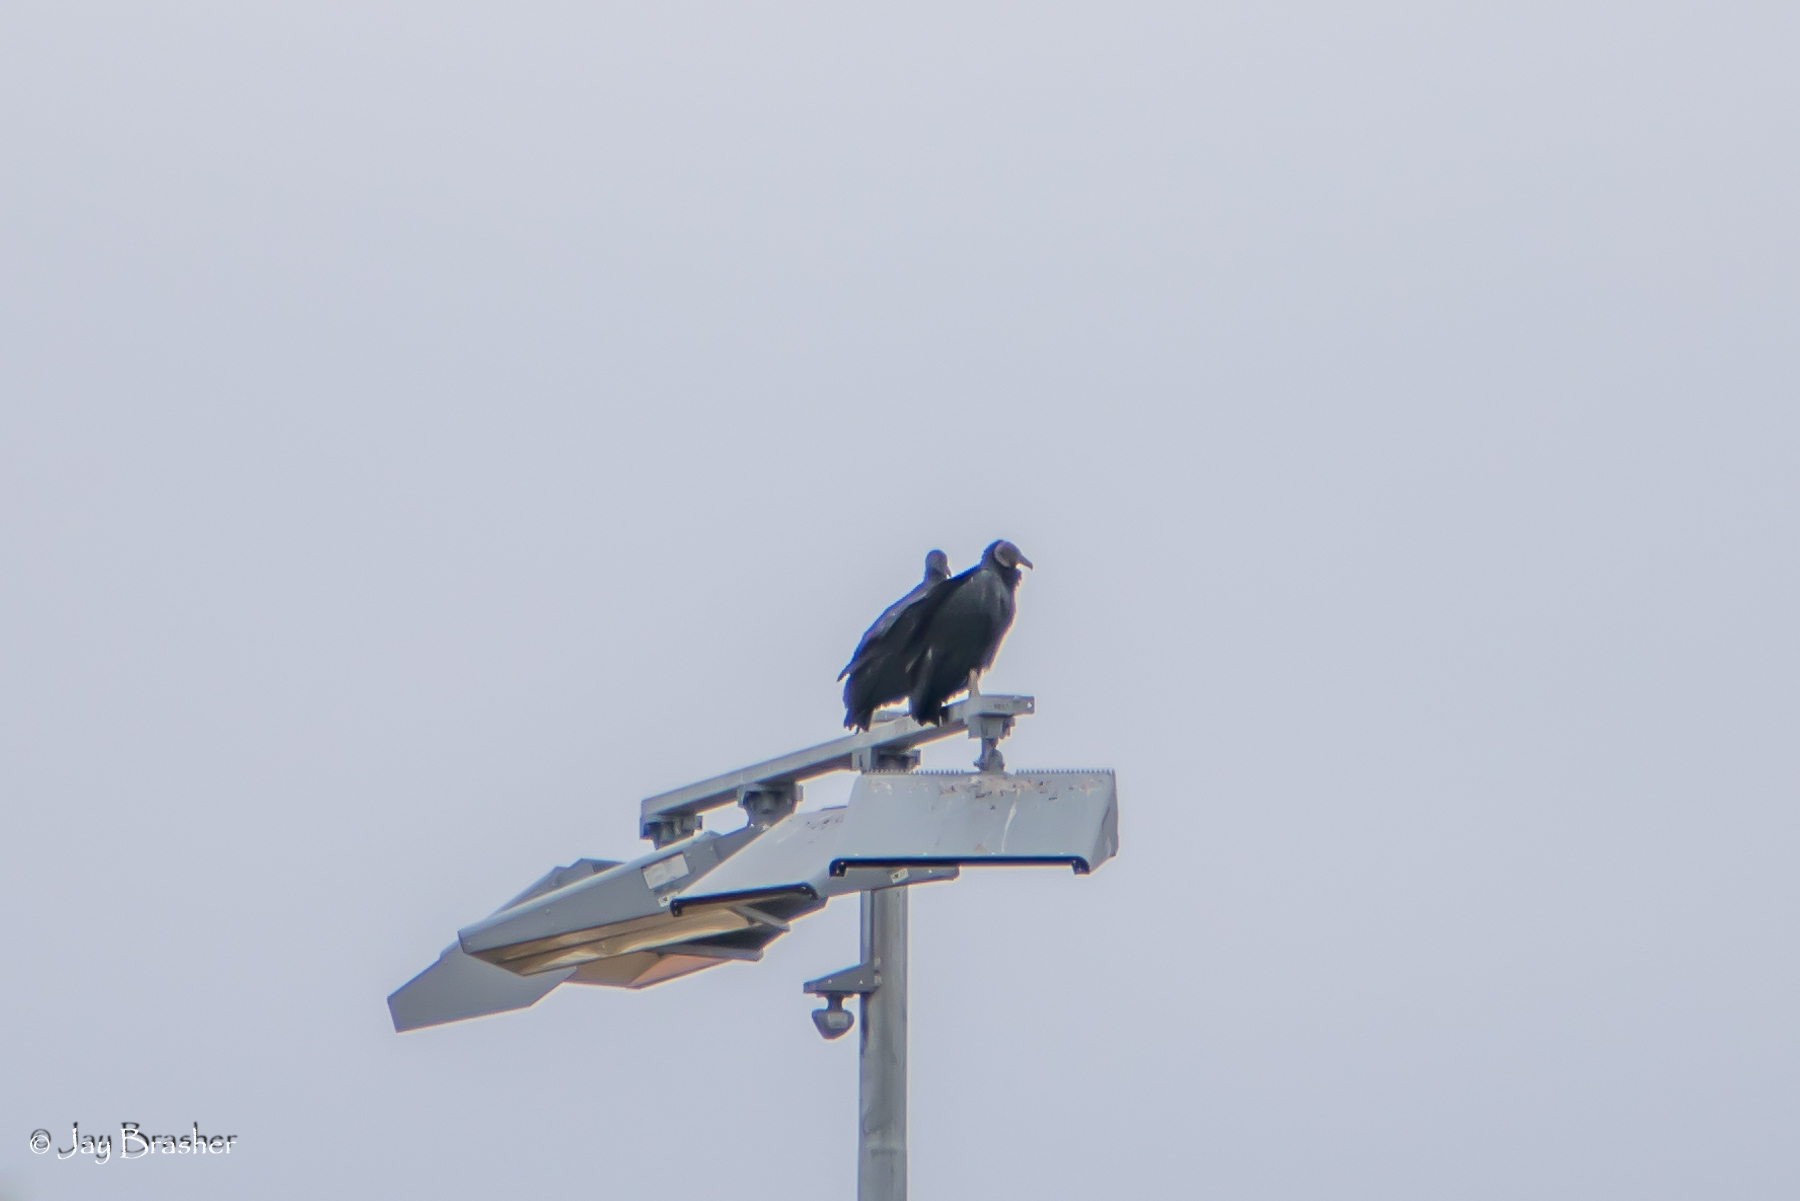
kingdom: Animalia
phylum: Chordata
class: Aves
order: Accipitriformes
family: Cathartidae
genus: Coragyps
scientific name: Coragyps atratus
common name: Black vulture
